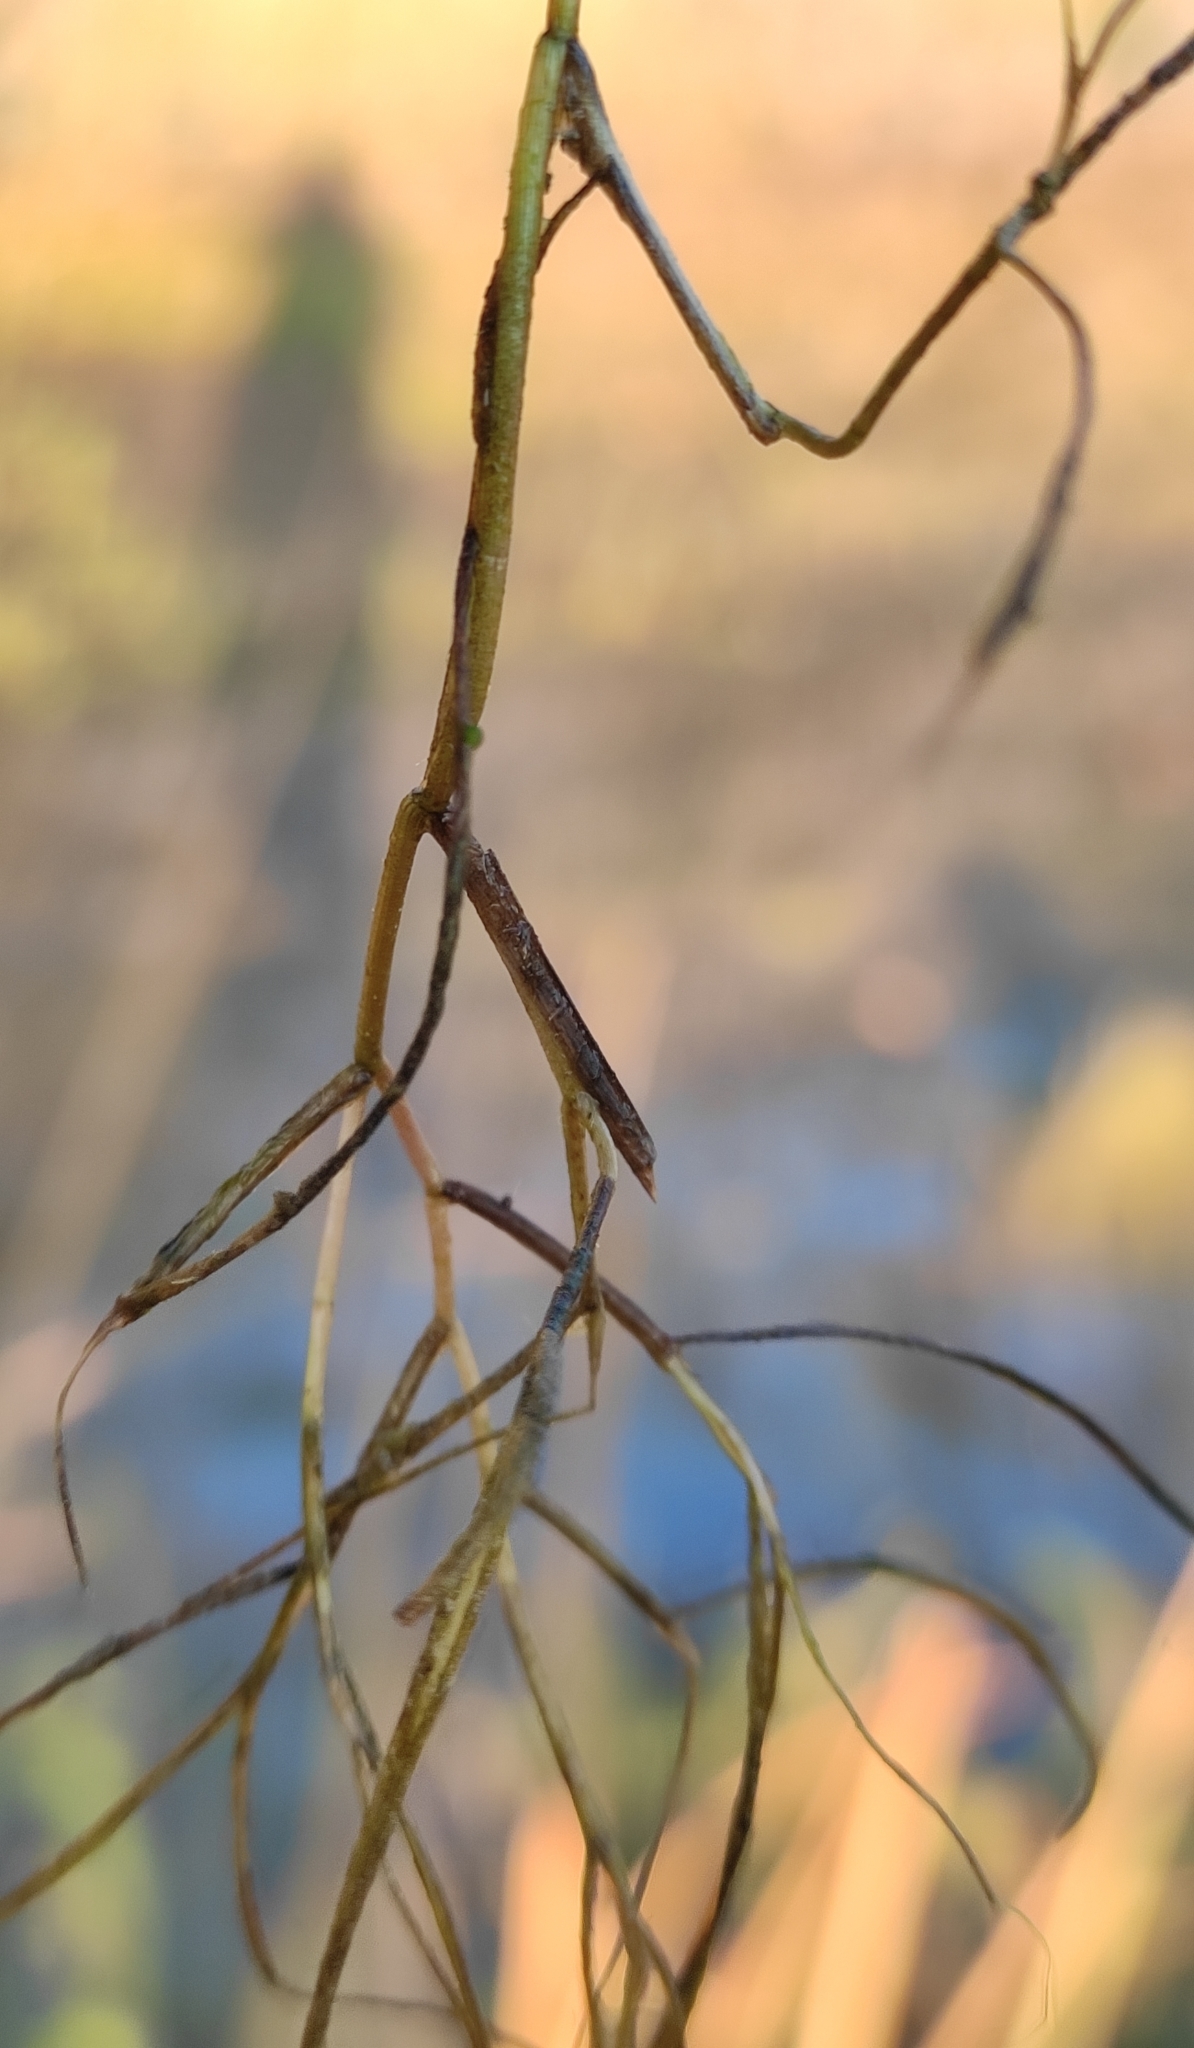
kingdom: Plantae
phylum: Tracheophyta
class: Liliopsida
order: Alismatales
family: Potamogetonaceae
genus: Stuckenia
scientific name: Stuckenia pectinata
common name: Sago pondweed
